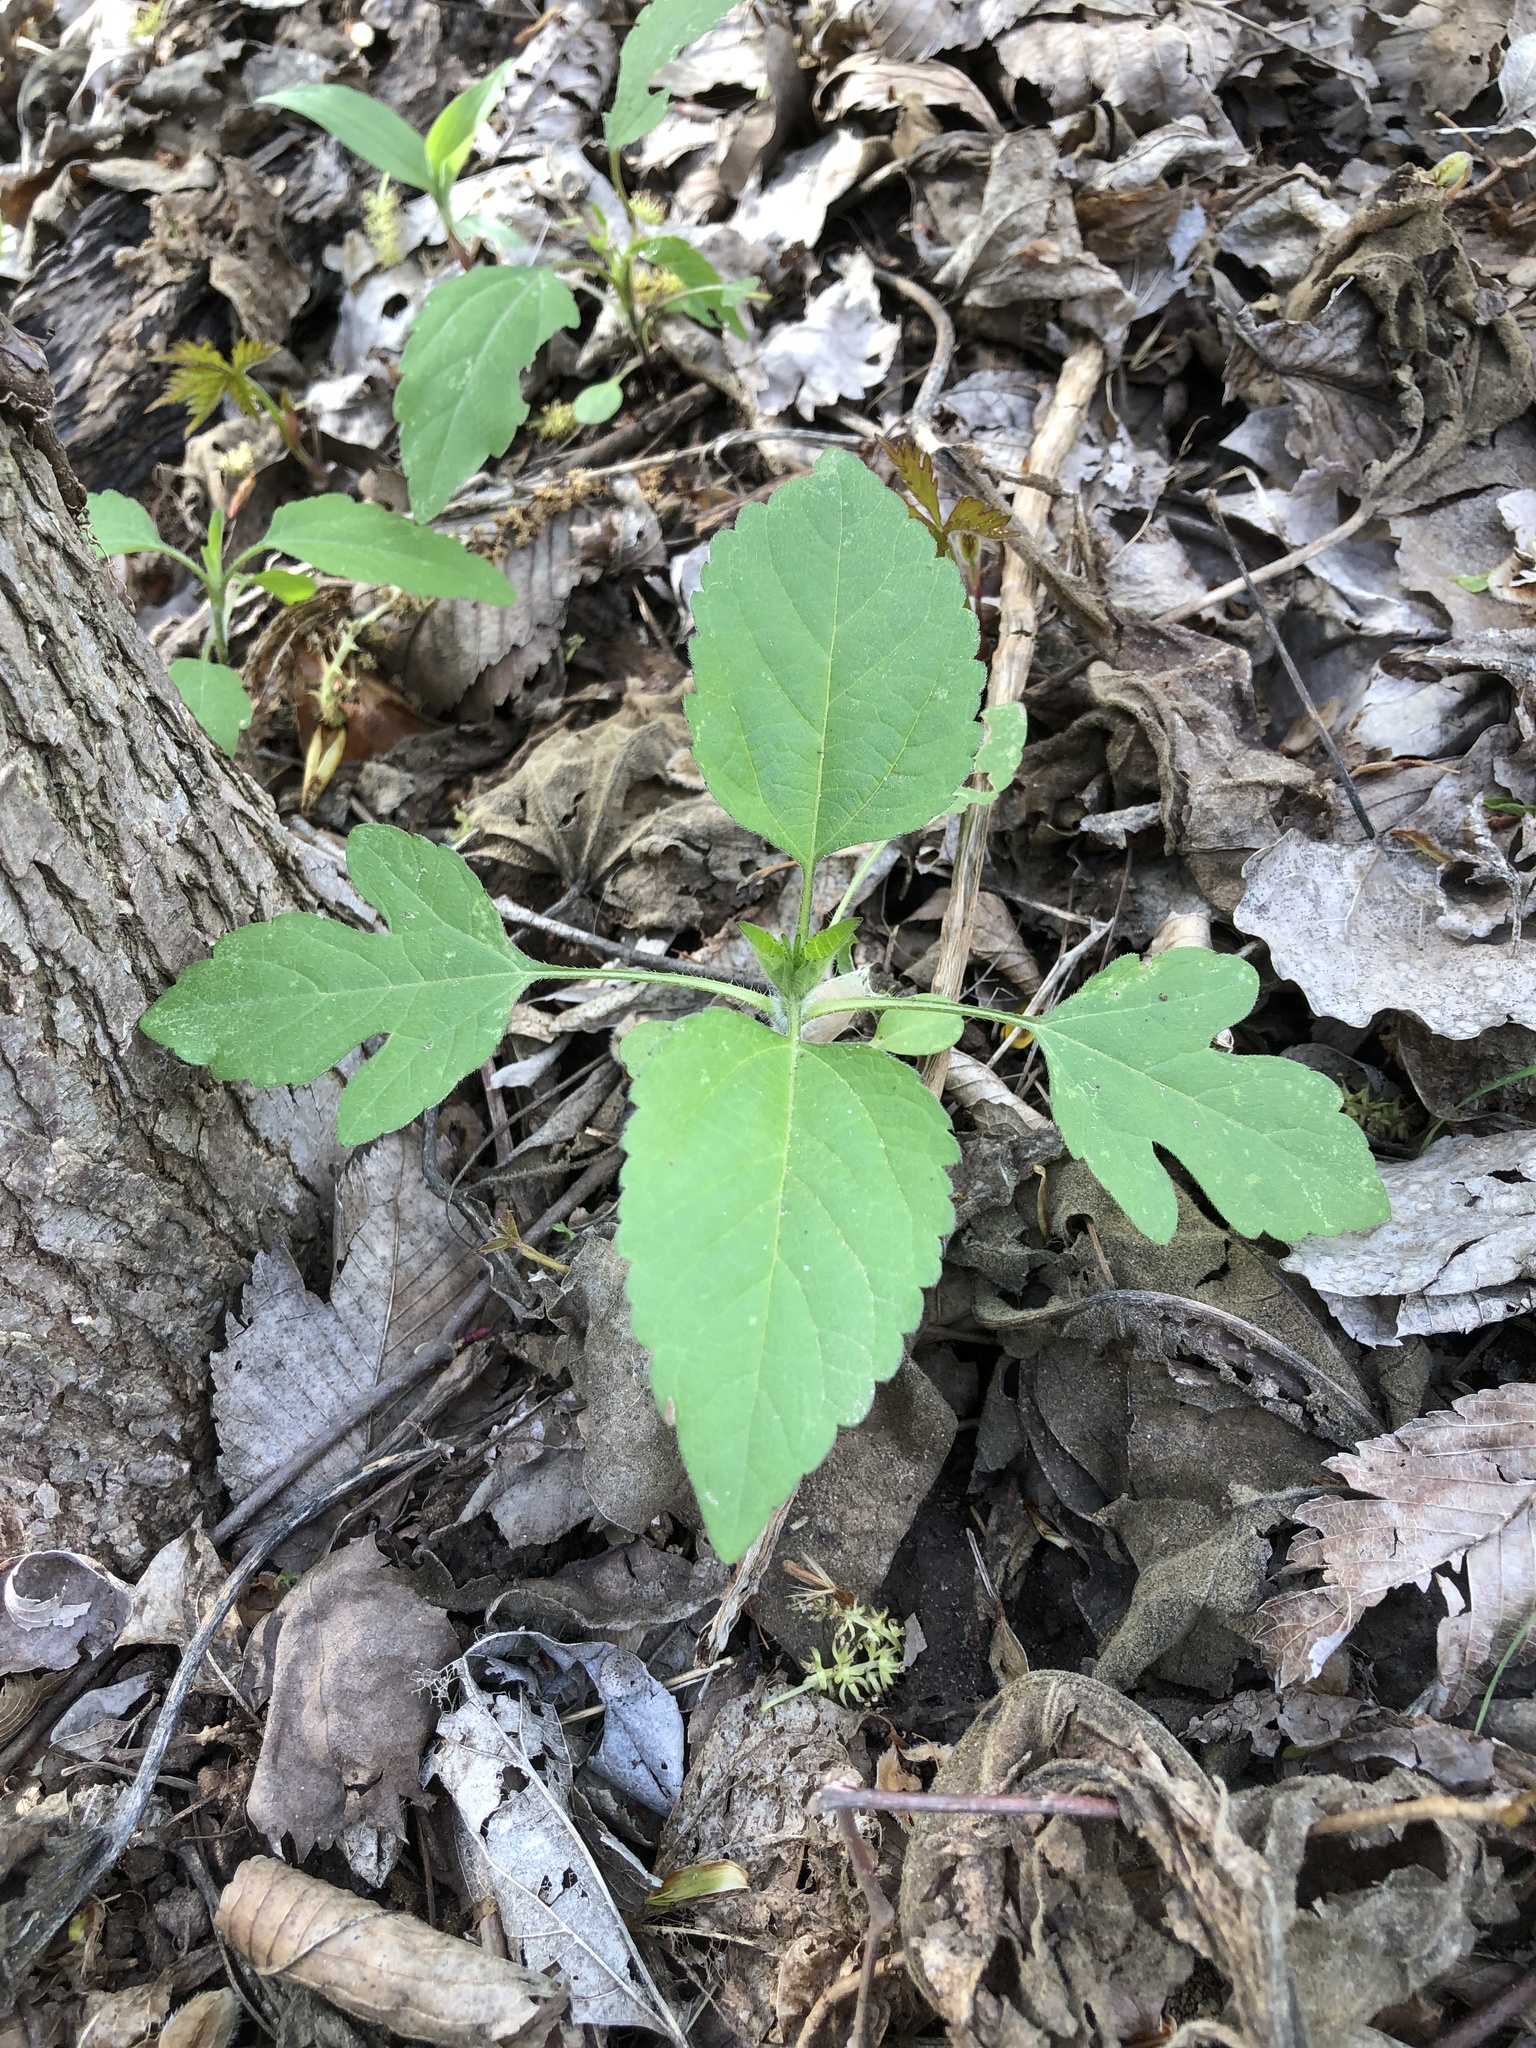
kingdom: Plantae
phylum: Tracheophyta
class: Magnoliopsida
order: Asterales
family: Asteraceae
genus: Ambrosia
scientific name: Ambrosia trifida
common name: Giant ragweed
